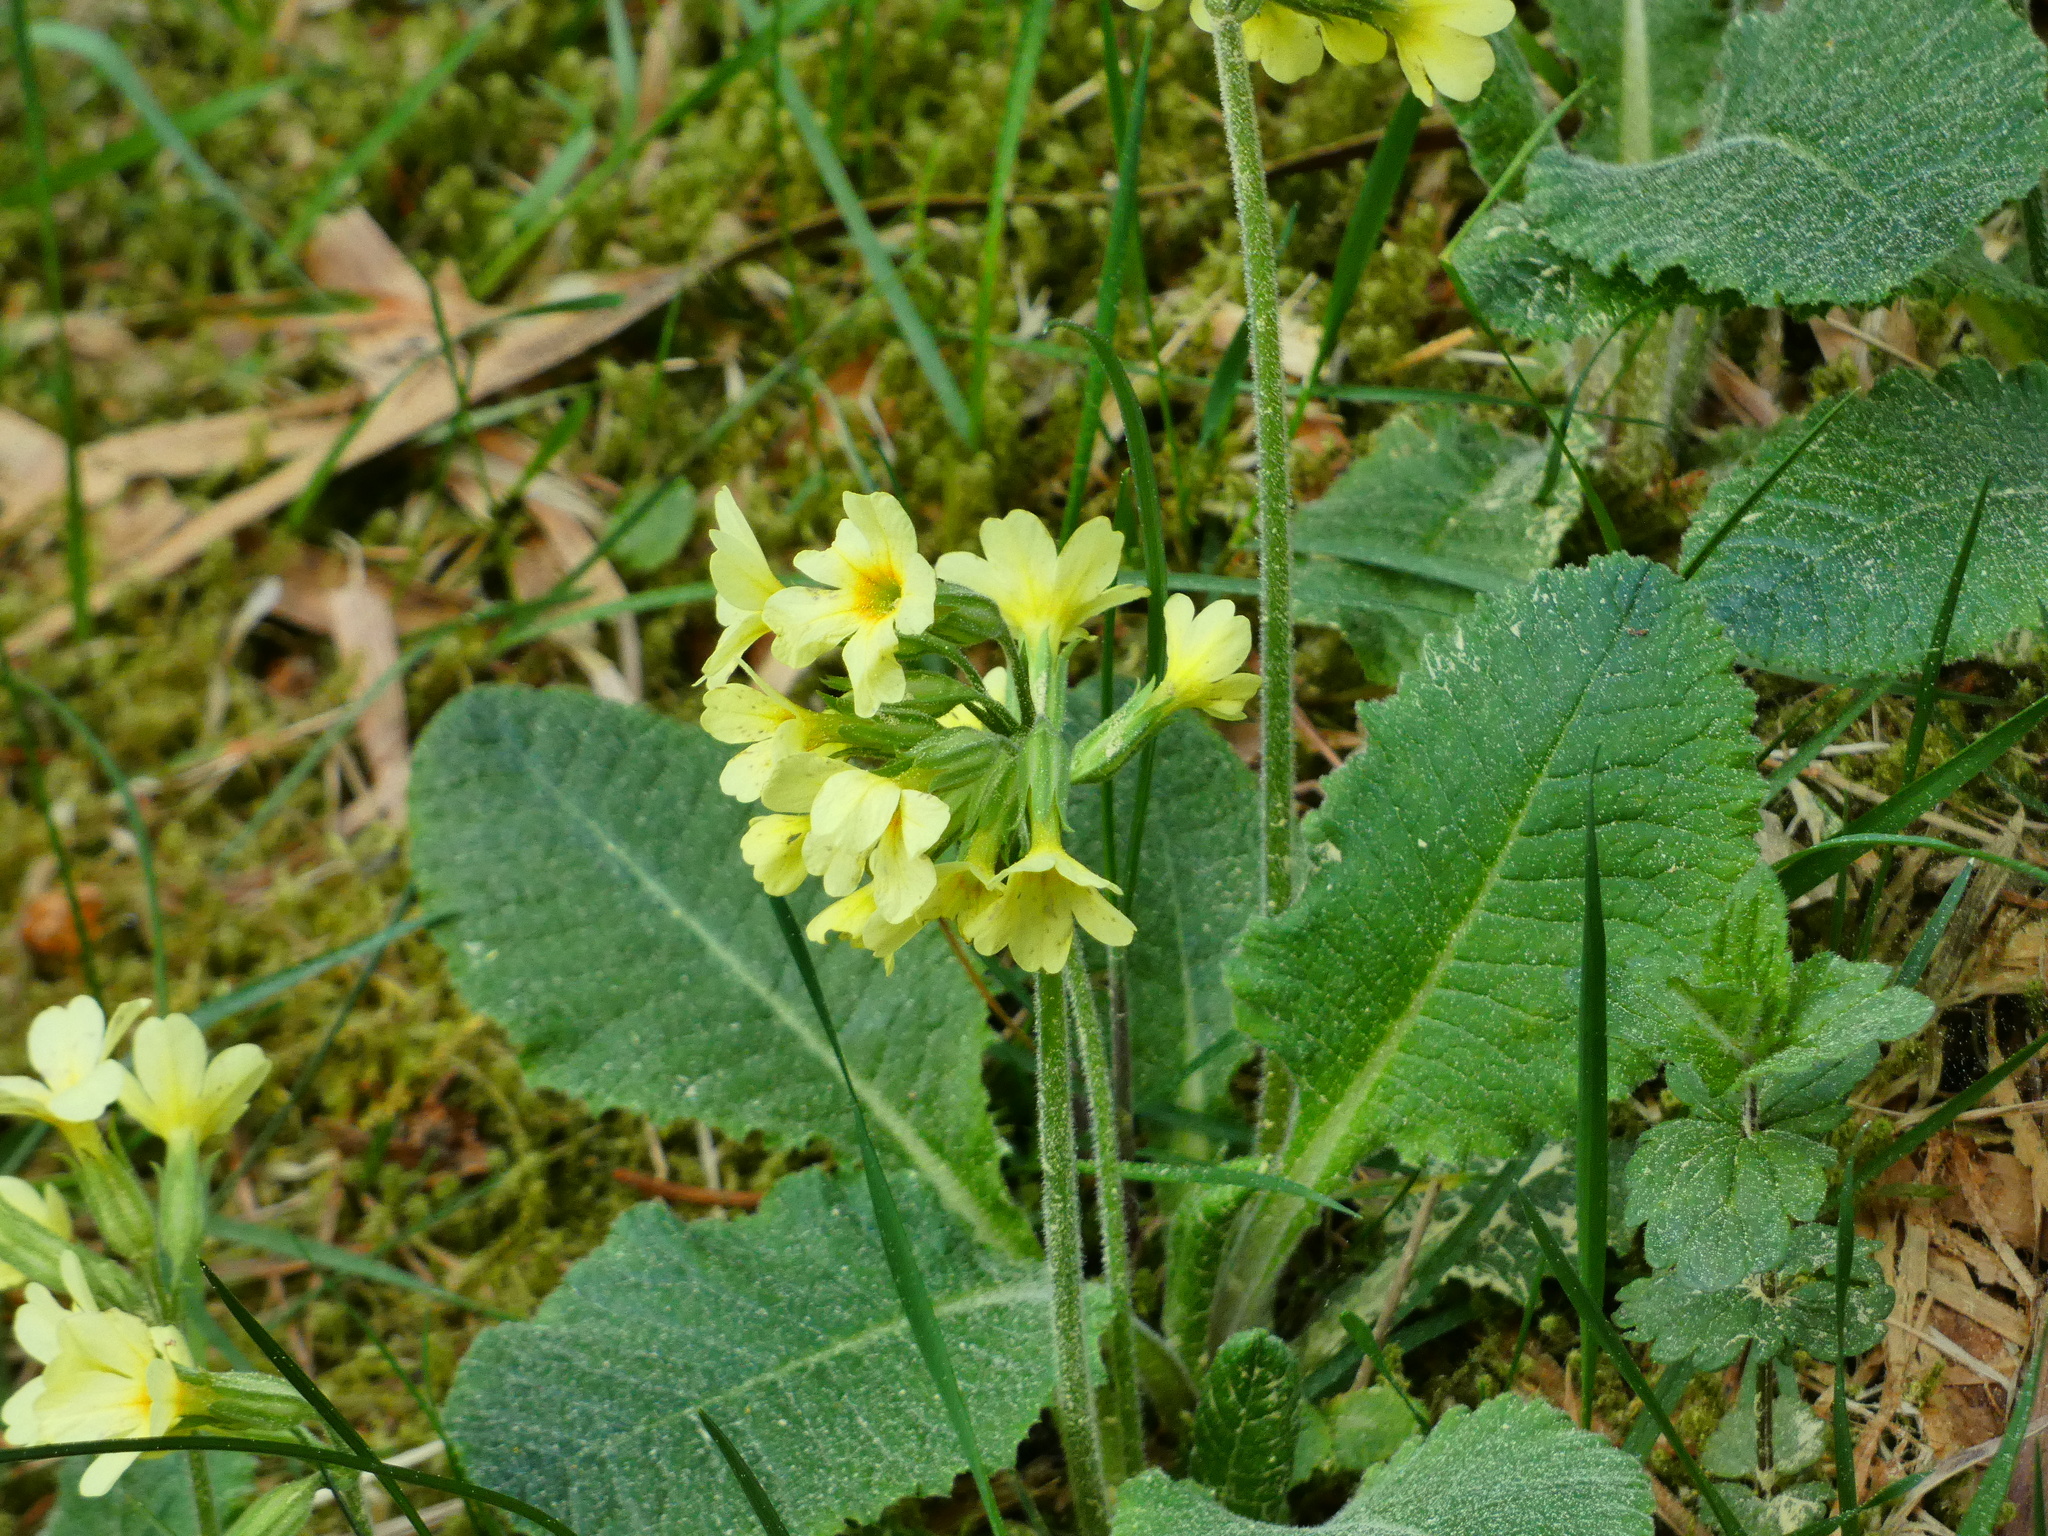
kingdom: Plantae
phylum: Tracheophyta
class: Magnoliopsida
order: Ericales
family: Primulaceae
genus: Primula
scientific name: Primula elatior
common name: Oxlip
